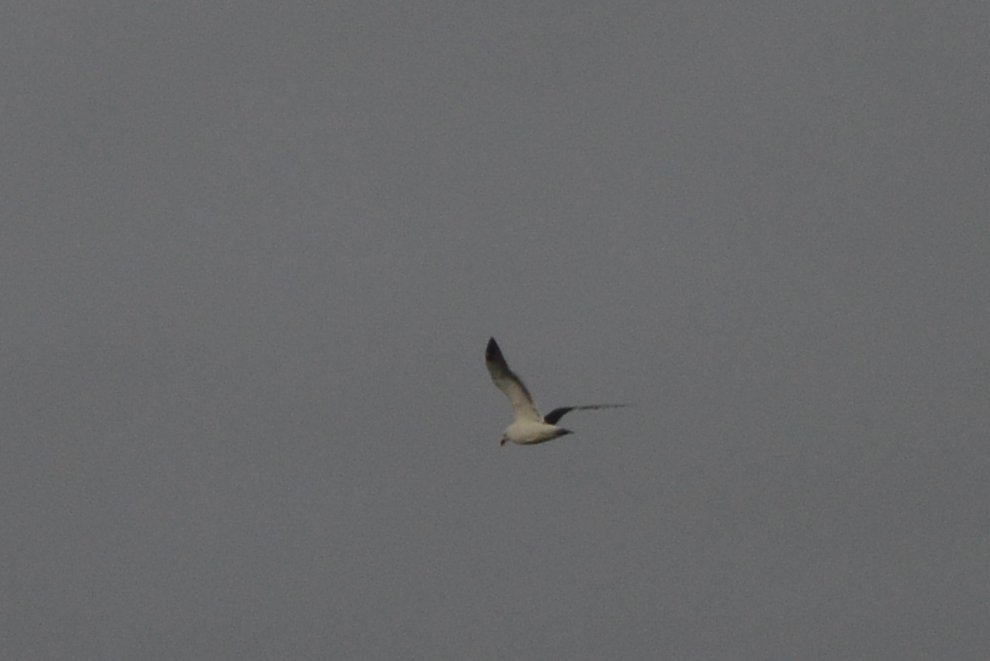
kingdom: Animalia
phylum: Chordata
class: Aves
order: Charadriiformes
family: Laridae
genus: Larus
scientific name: Larus dominicanus
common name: Kelp gull
